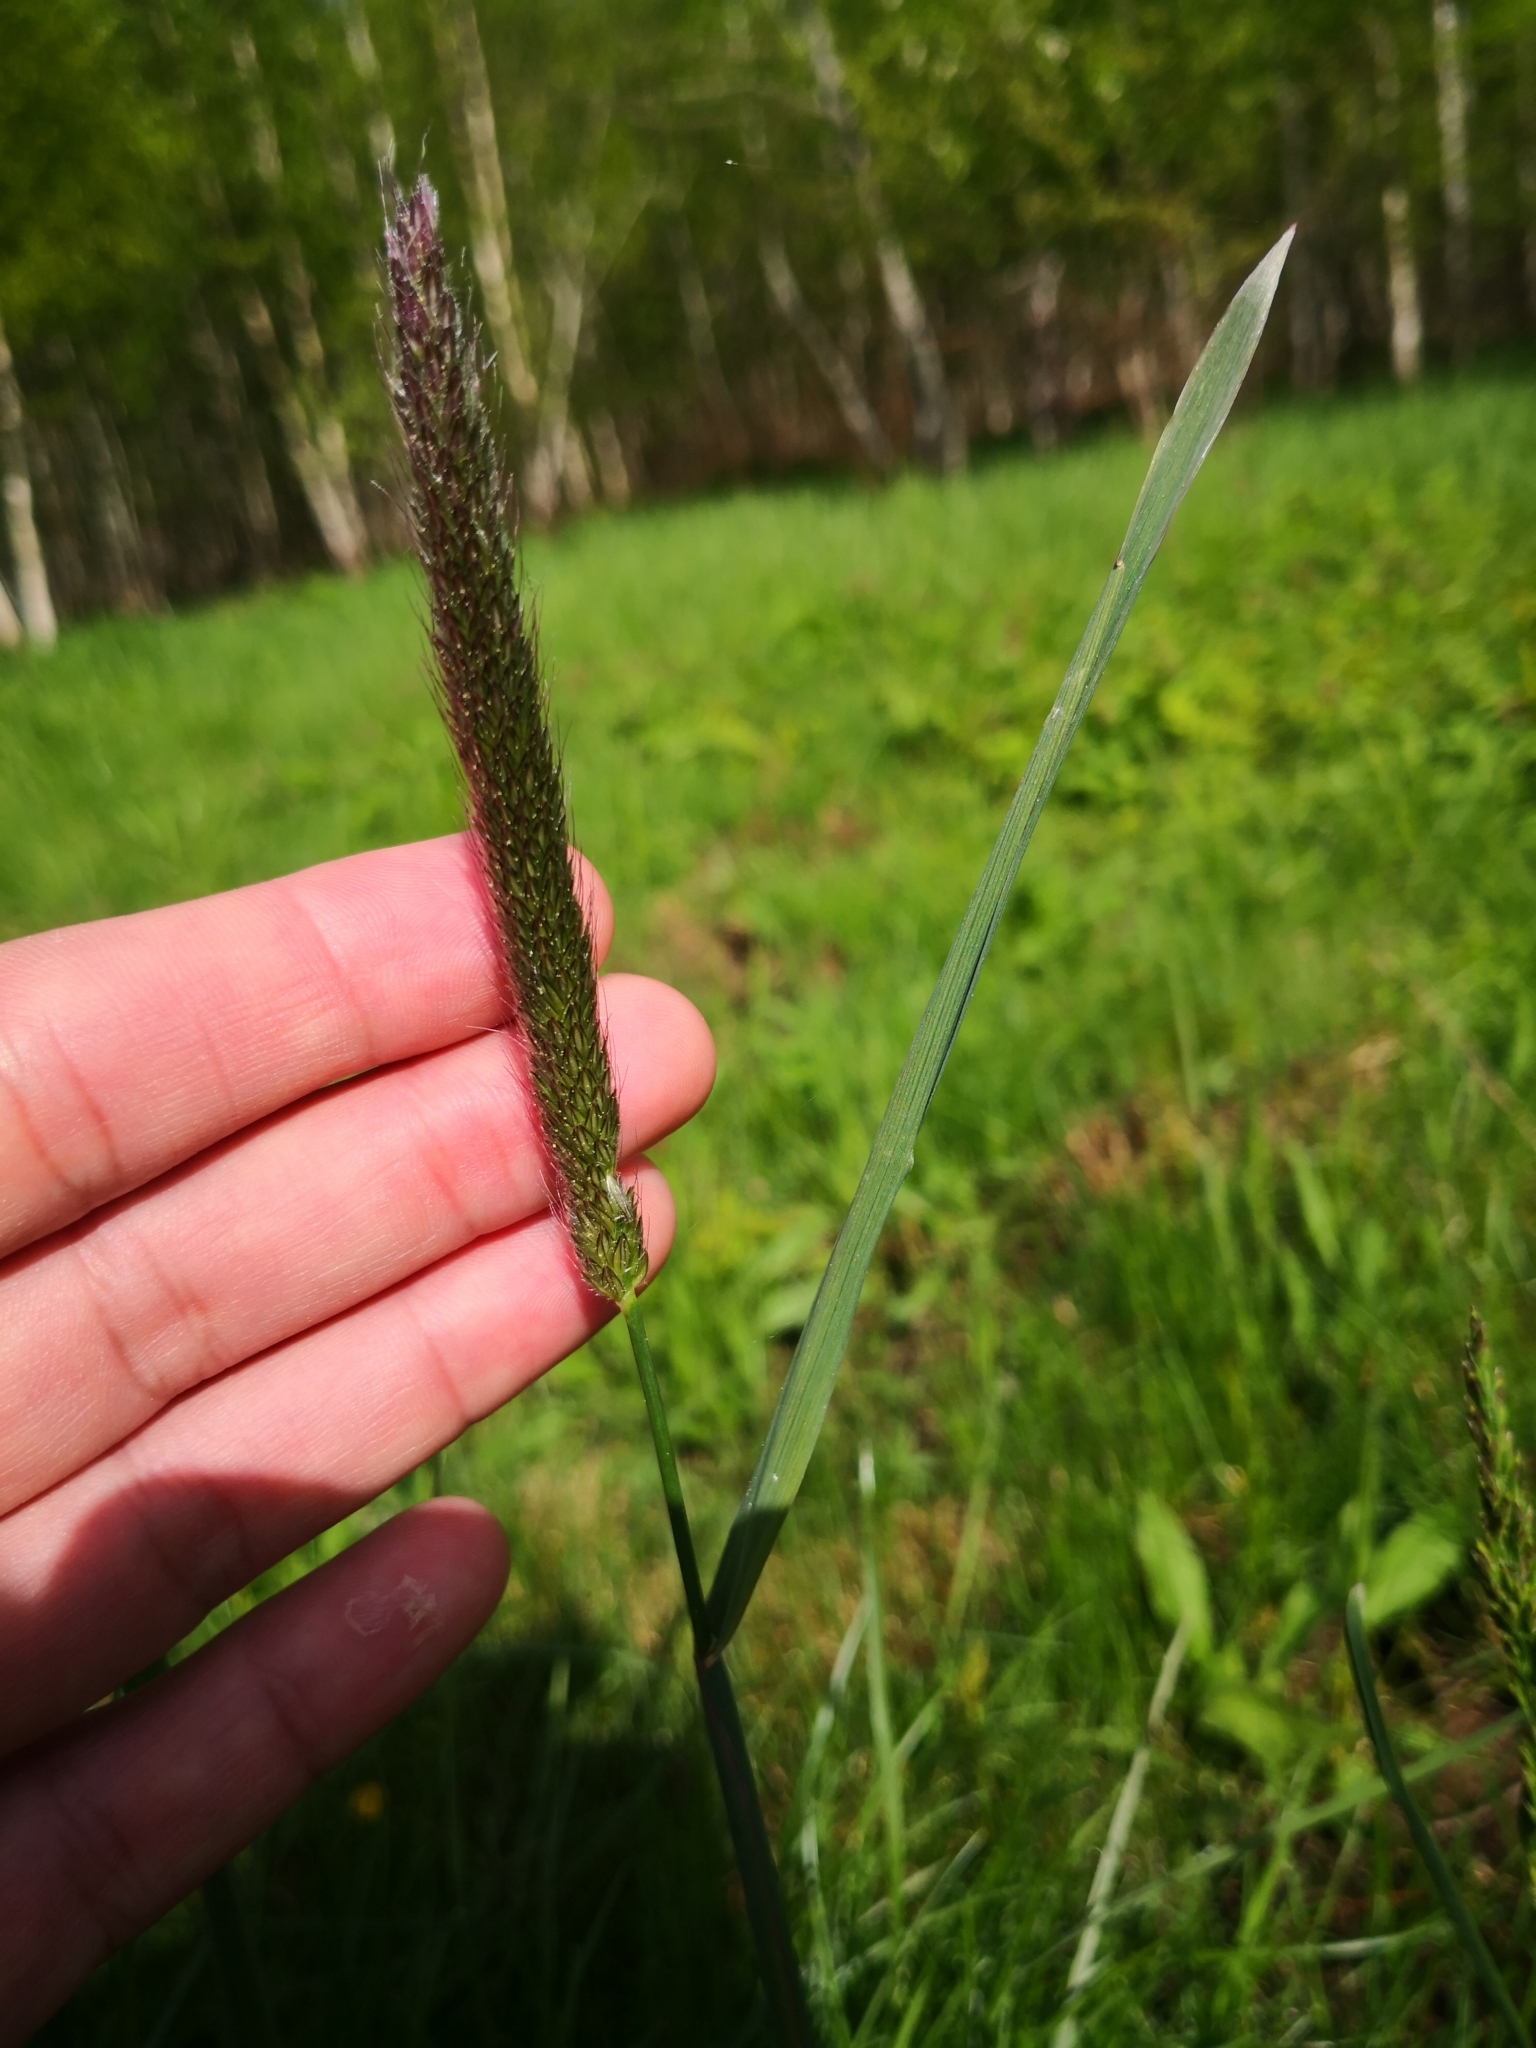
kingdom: Plantae
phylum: Tracheophyta
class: Liliopsida
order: Poales
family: Poaceae
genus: Alopecurus
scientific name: Alopecurus pratensis
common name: Meadow foxtail
